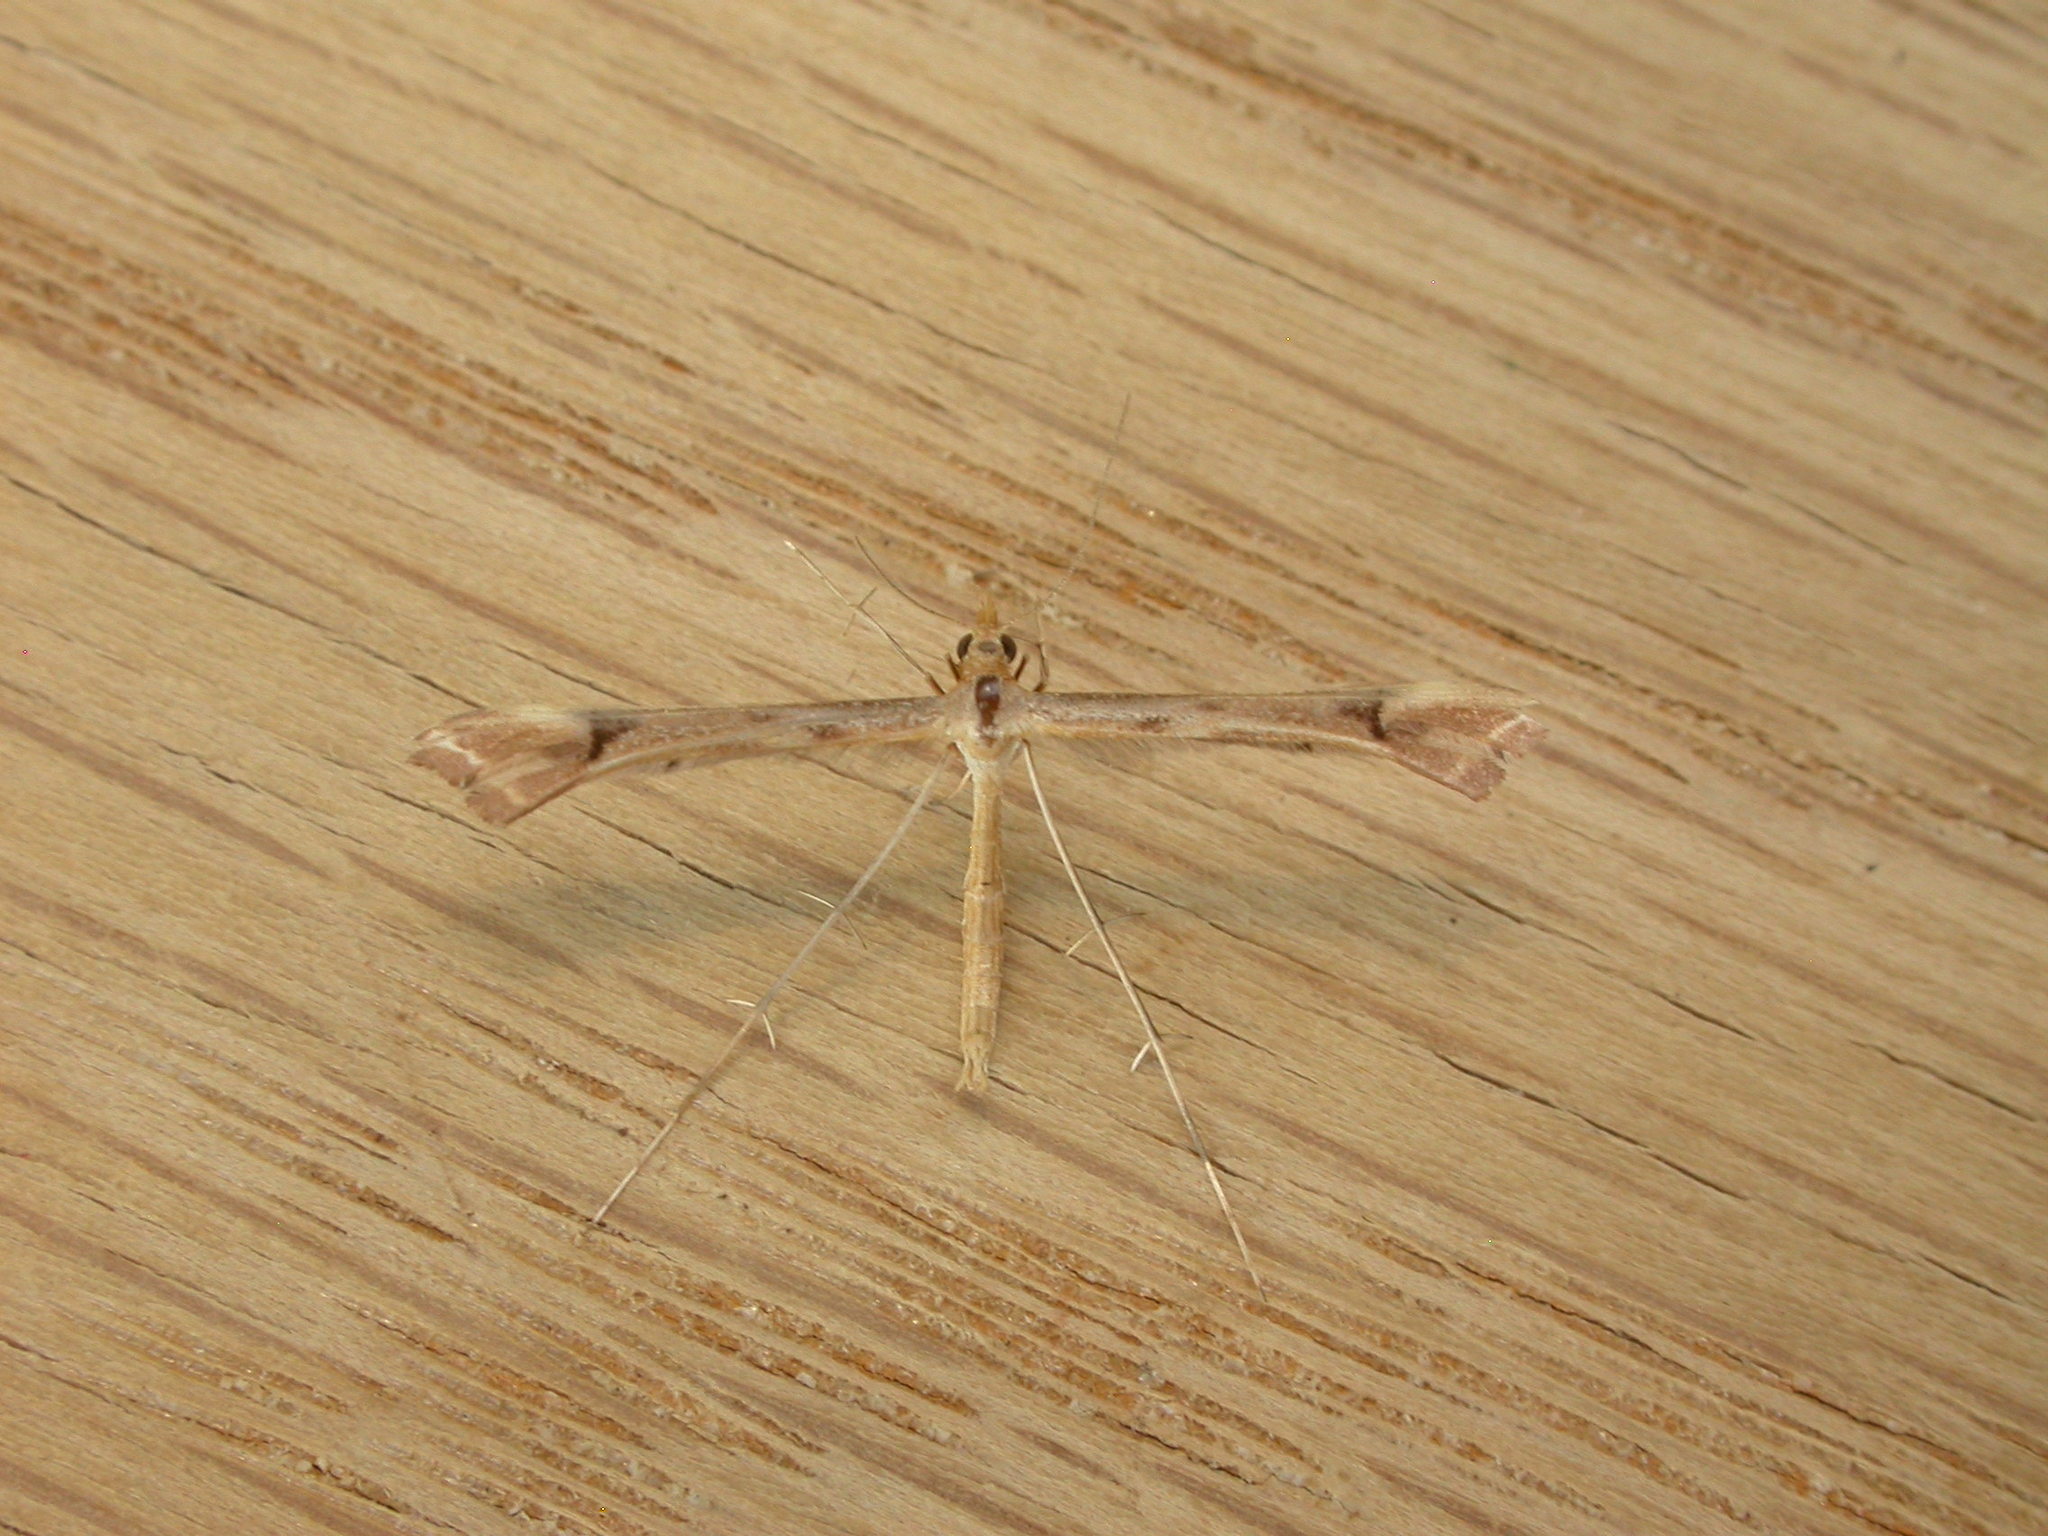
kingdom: Animalia
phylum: Arthropoda
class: Insecta
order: Lepidoptera
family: Pterophoridae
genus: Sinpunctiptilia
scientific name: Sinpunctiptilia emissalis
